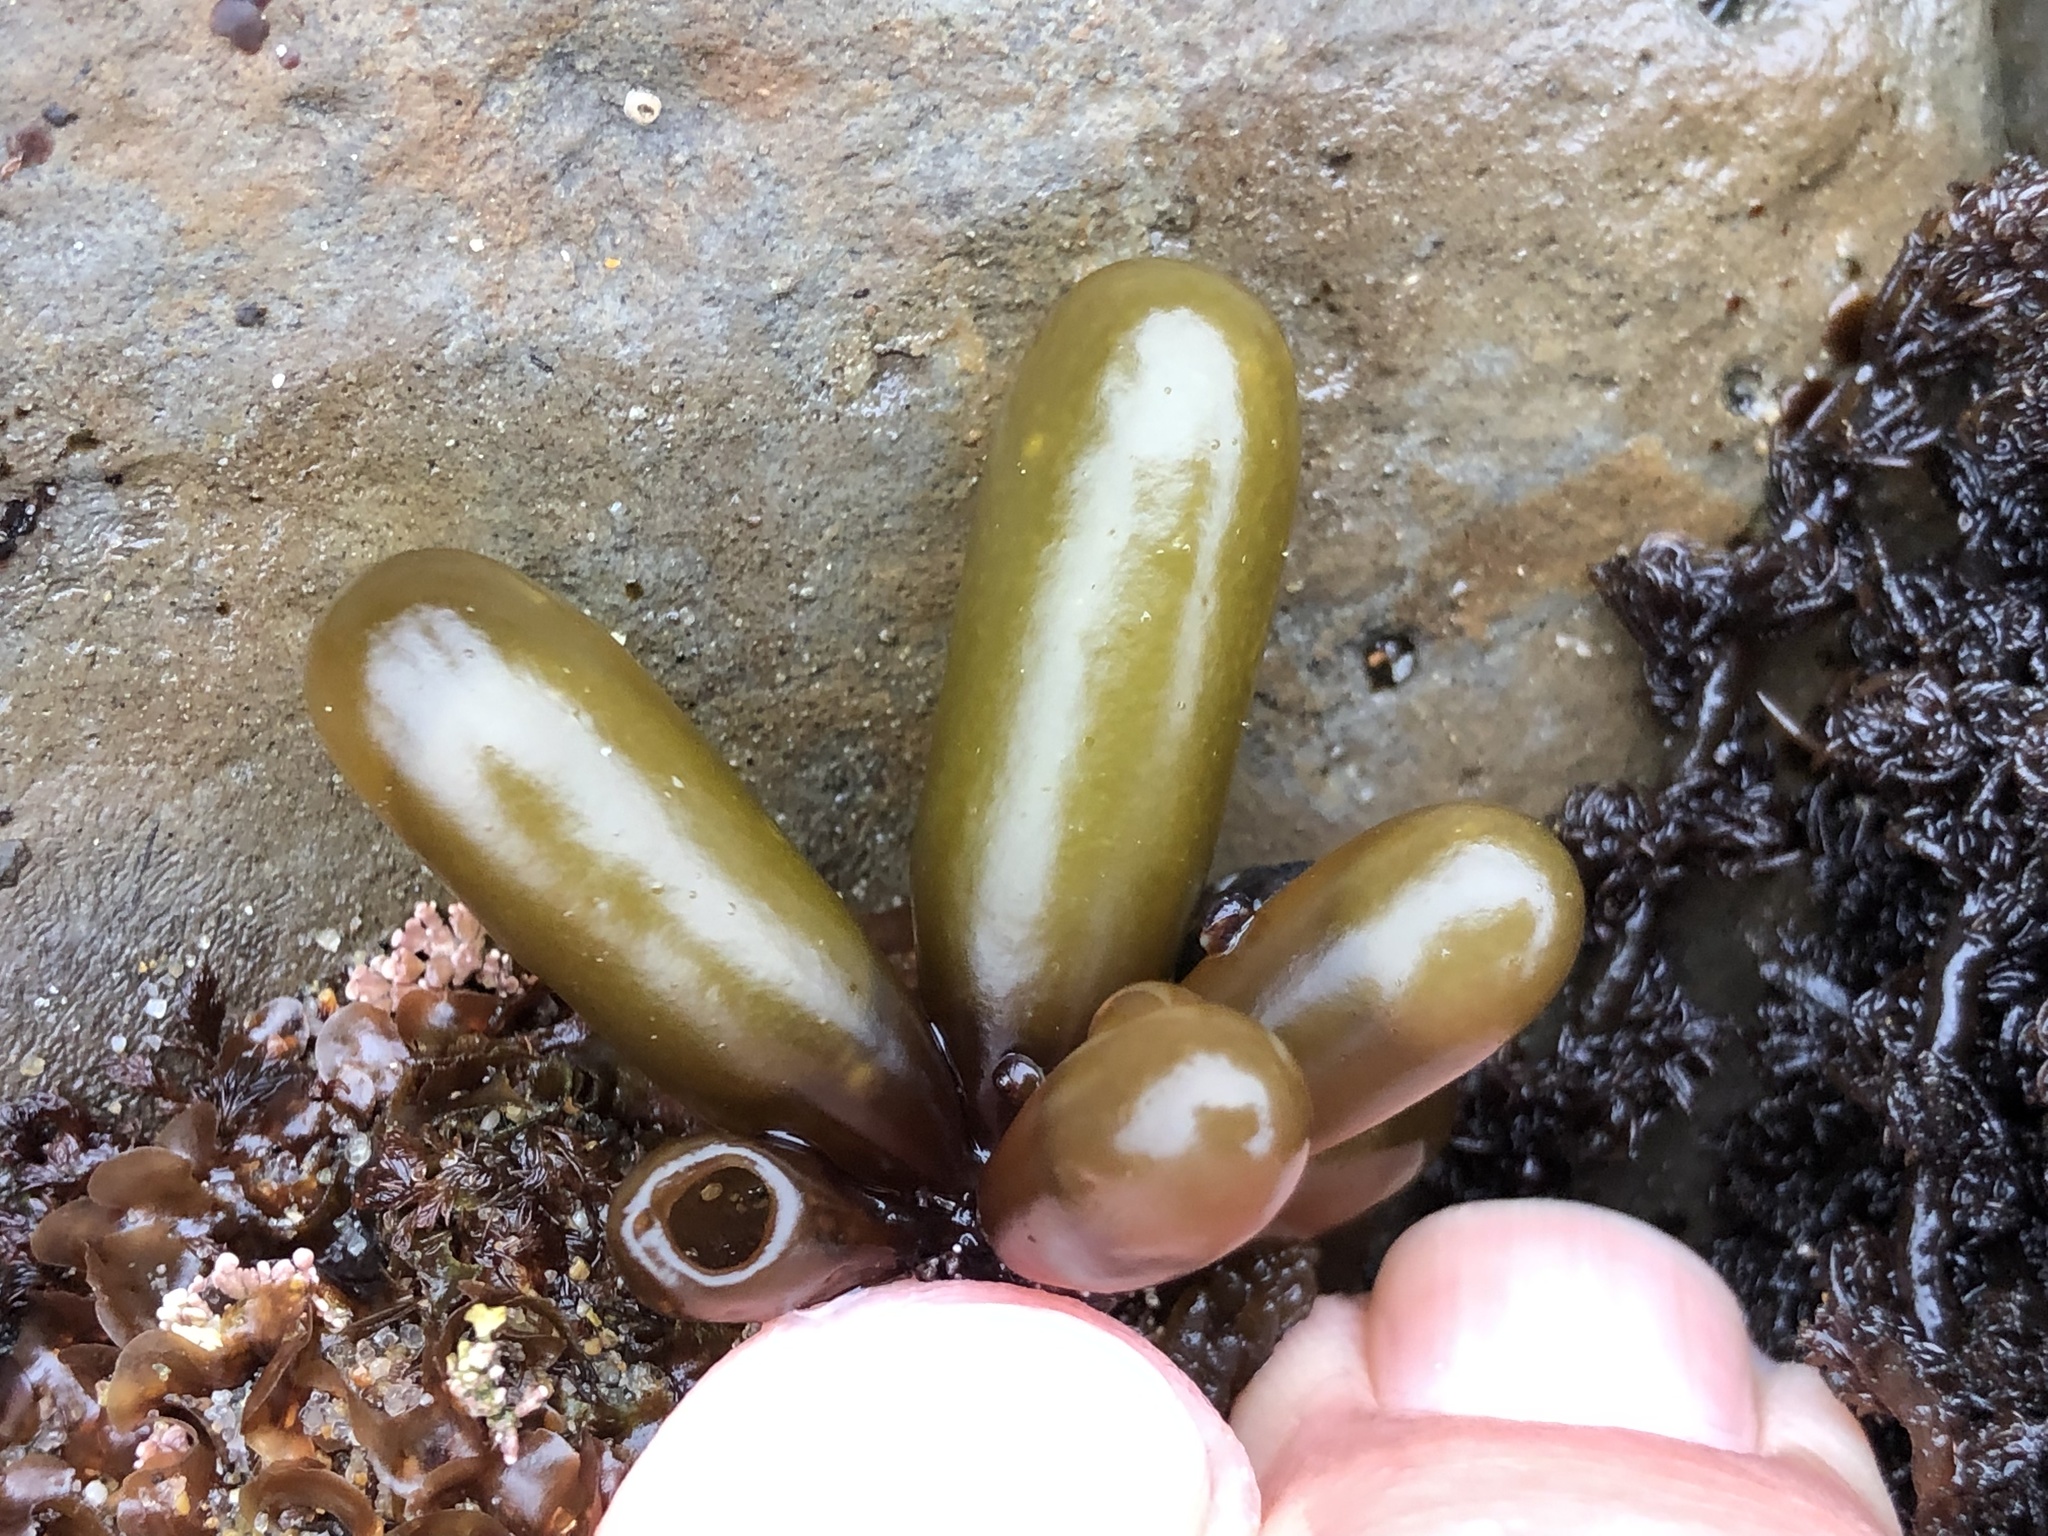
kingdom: Plantae
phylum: Rhodophyta
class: Florideophyceae
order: Palmariales
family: Palmariaceae
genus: Halosaccion
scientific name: Halosaccion glandiforme
